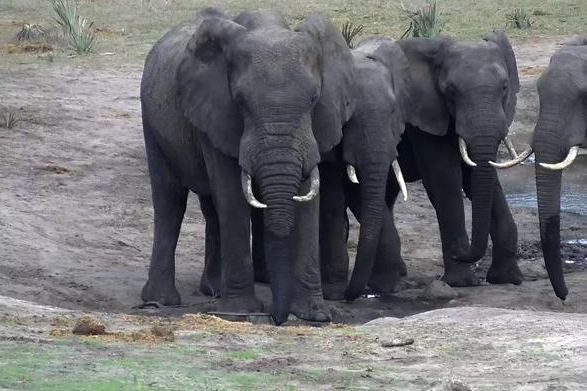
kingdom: Animalia
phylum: Chordata
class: Mammalia
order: Proboscidea
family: Elephantidae
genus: Loxodonta
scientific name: Loxodonta africana
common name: African elephant
